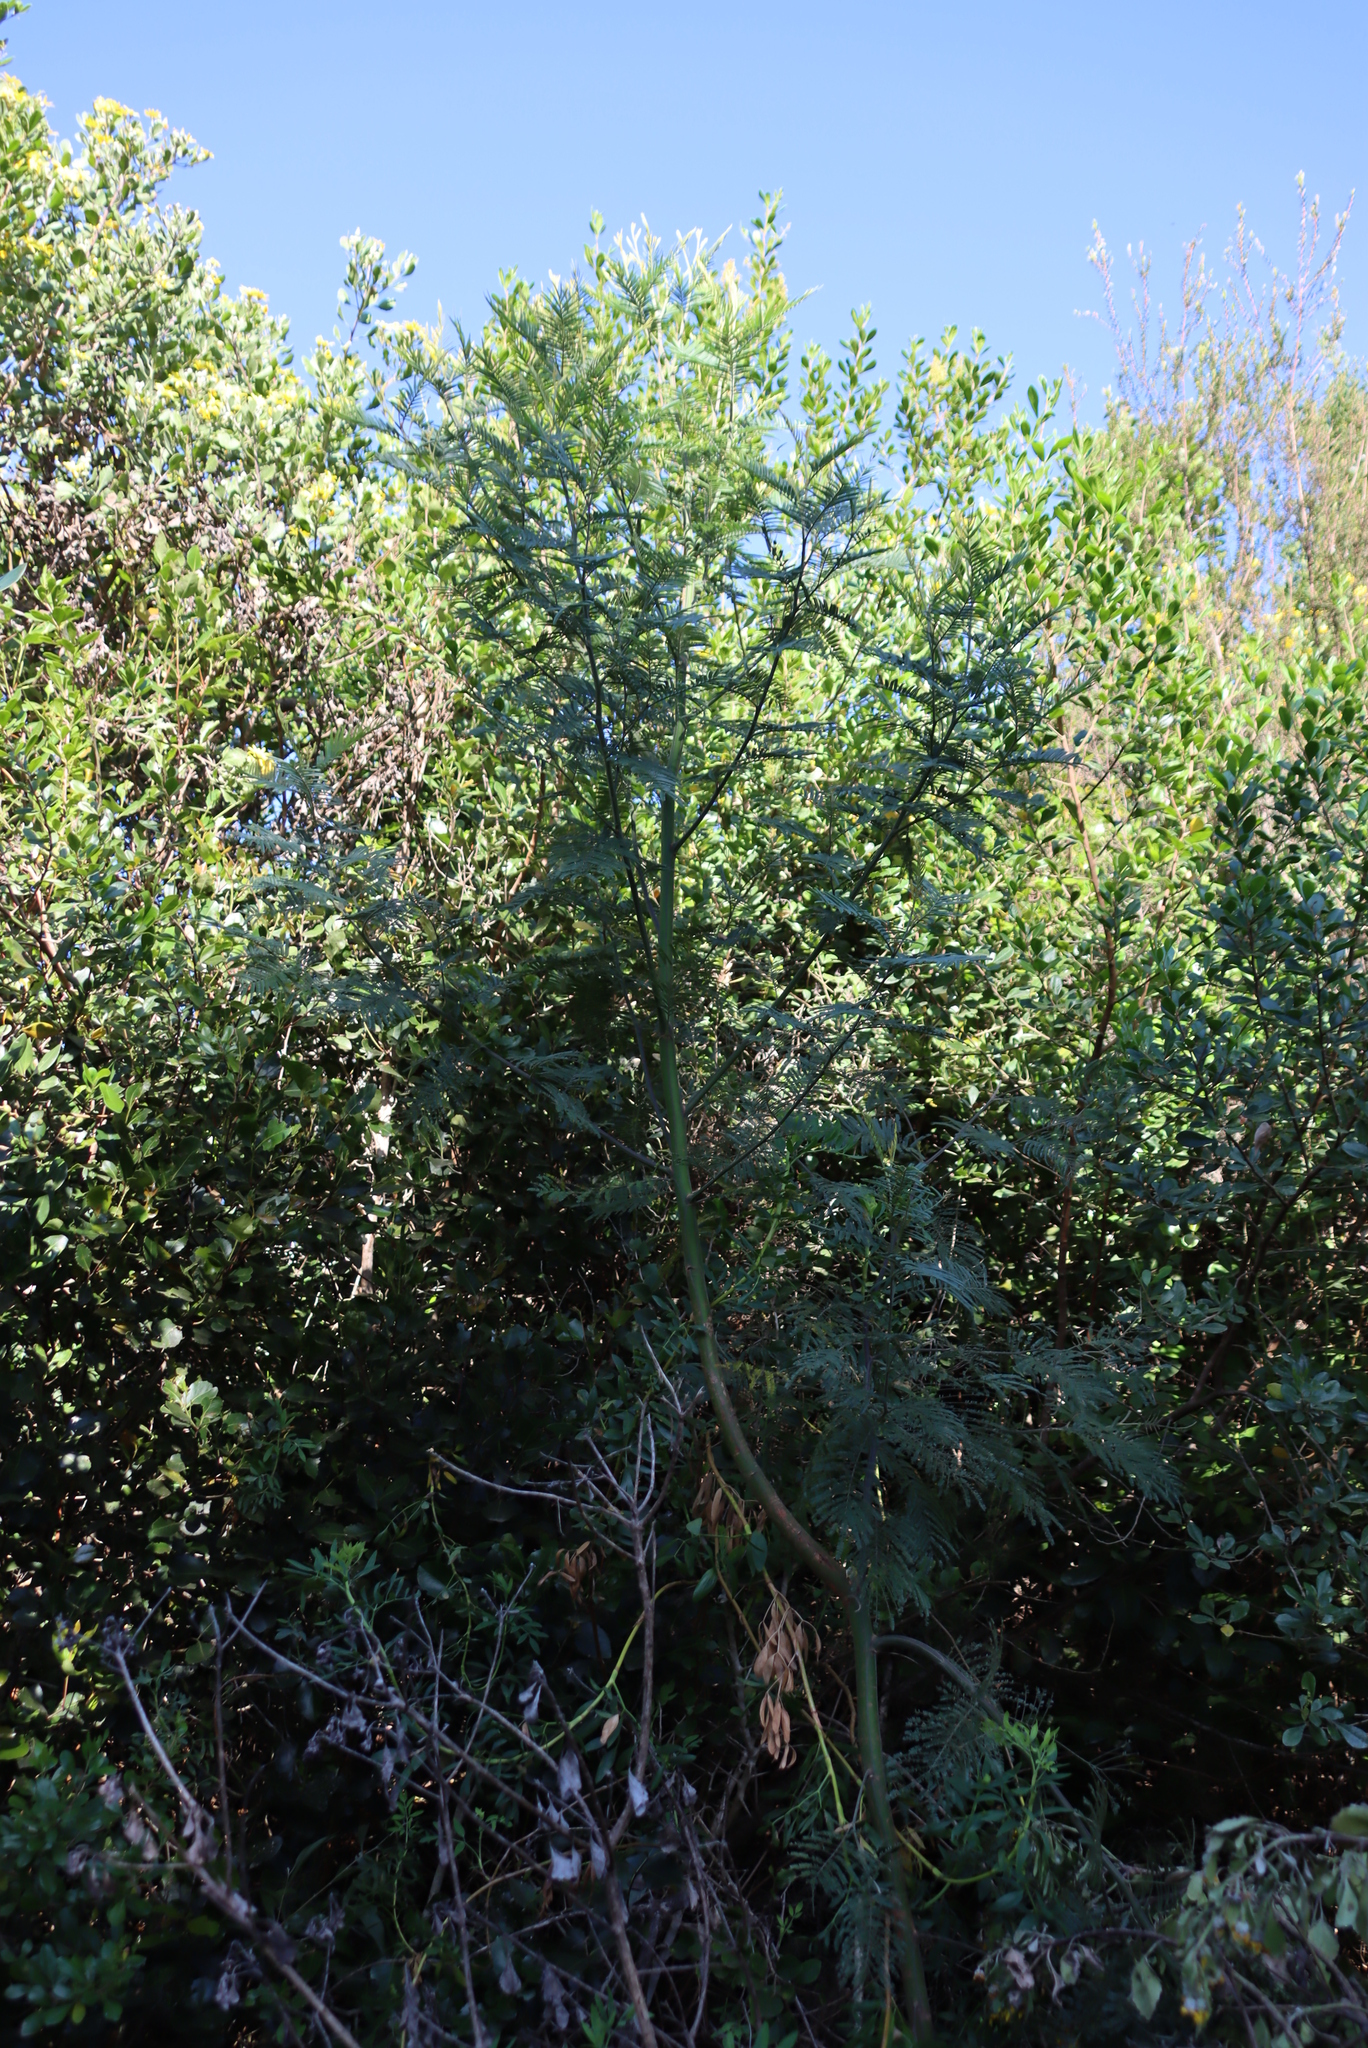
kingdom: Plantae
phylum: Tracheophyta
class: Magnoliopsida
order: Fabales
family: Fabaceae
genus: Acacia
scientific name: Acacia mearnsii
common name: Black wattle
